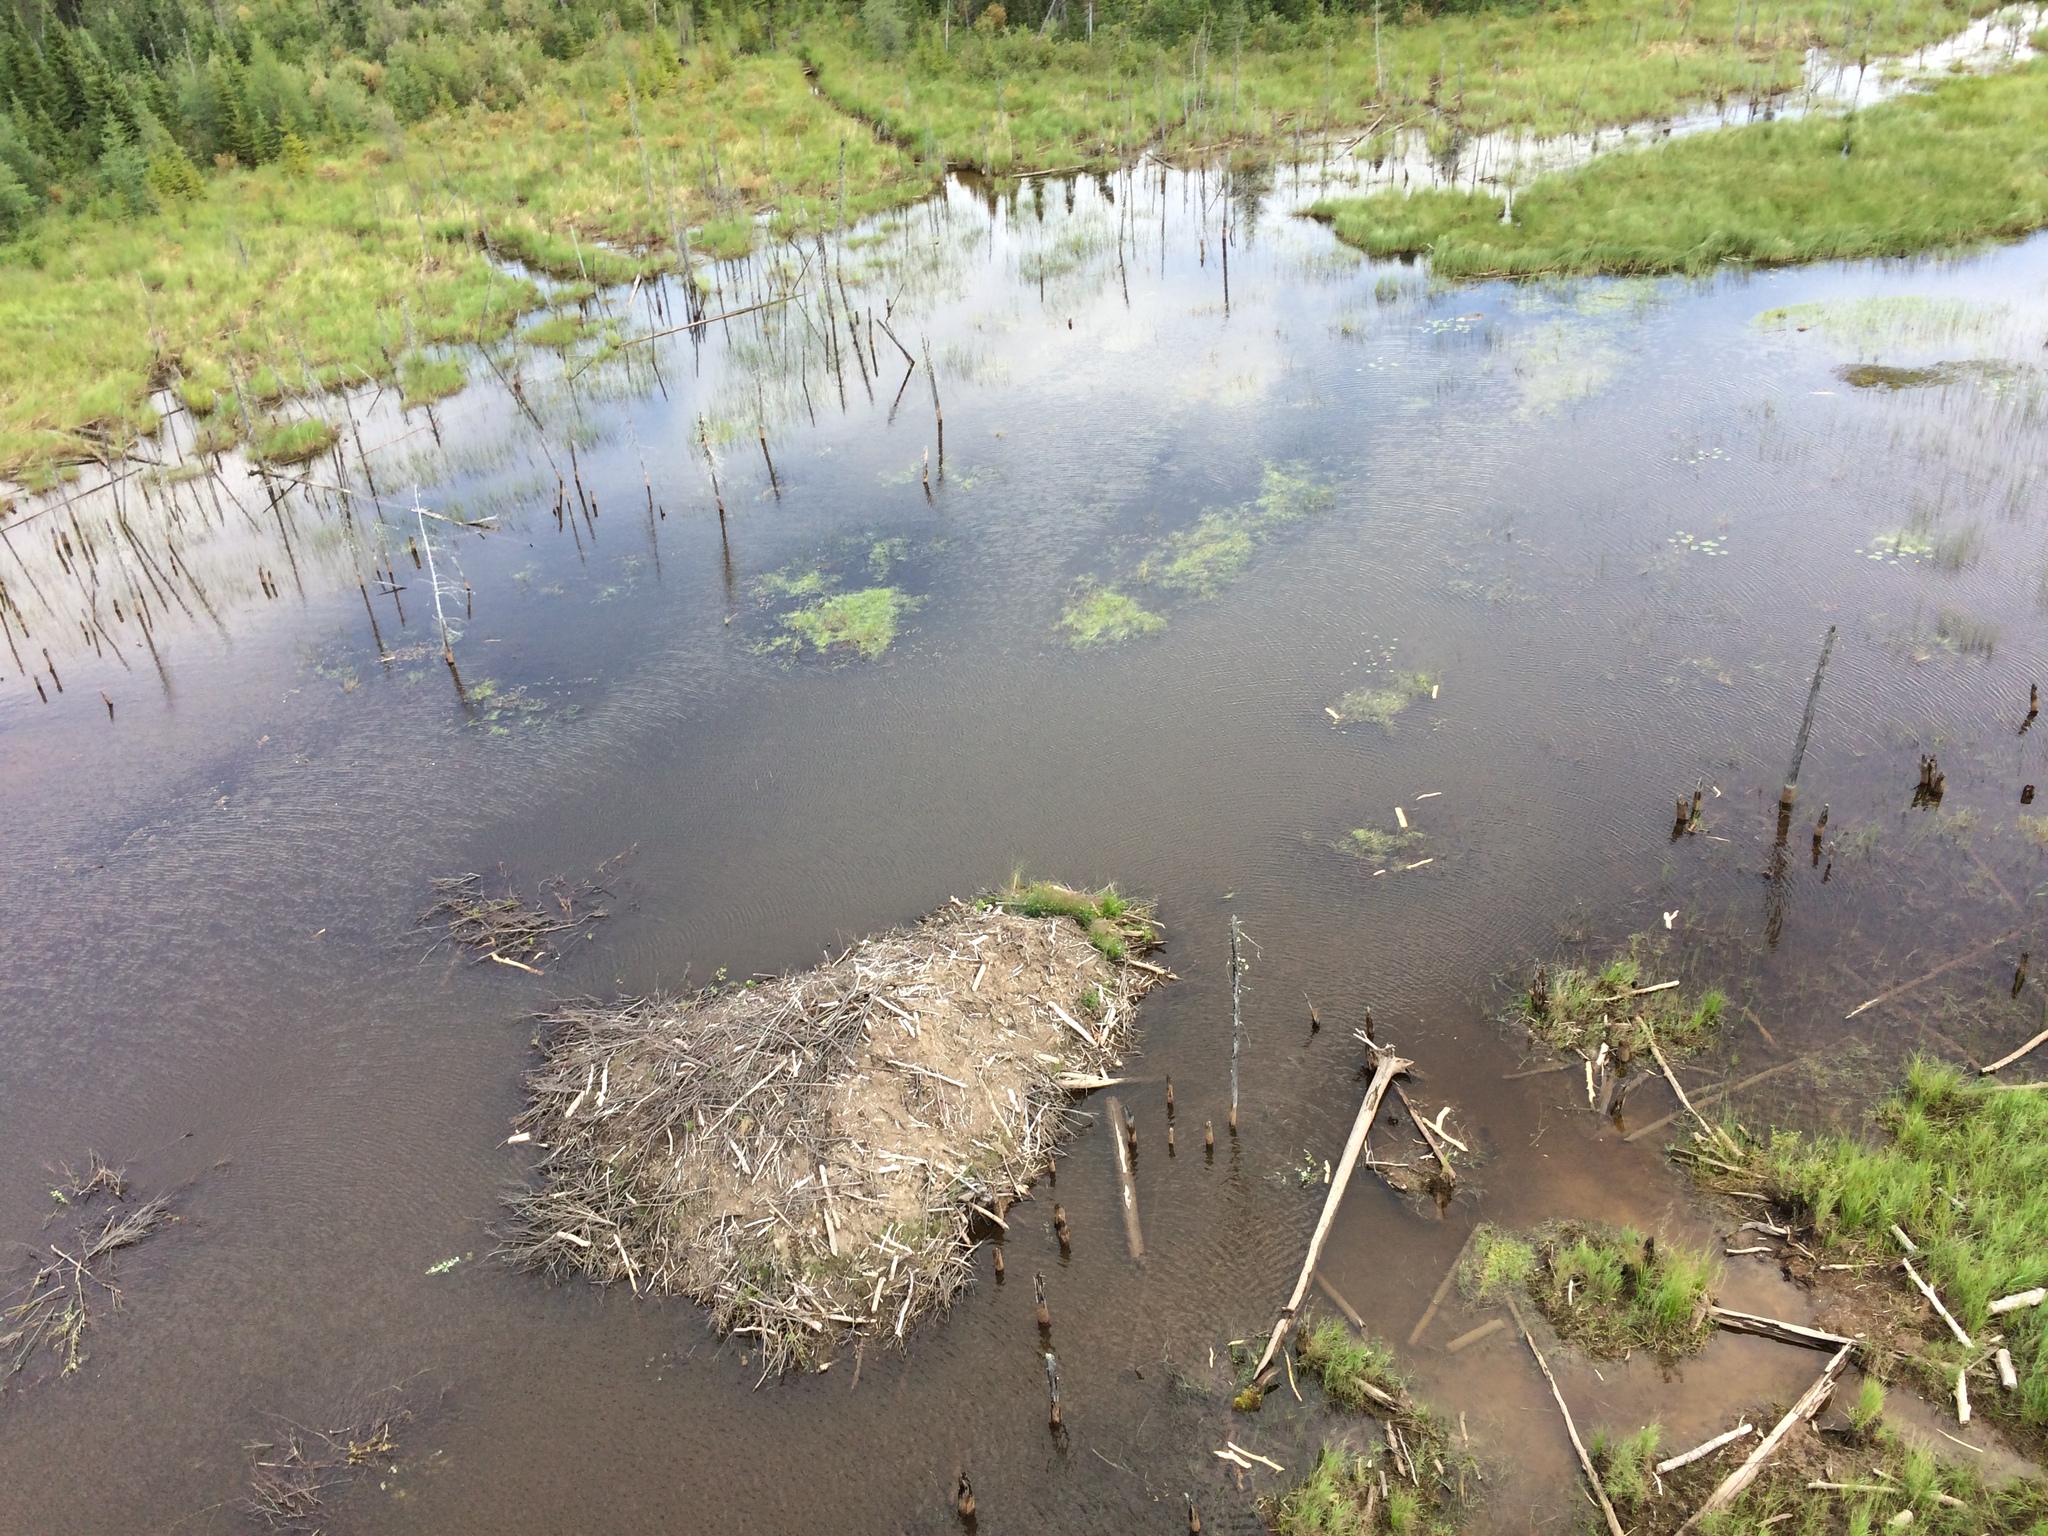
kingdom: Animalia
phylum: Chordata
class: Mammalia
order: Rodentia
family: Castoridae
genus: Castor
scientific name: Castor canadensis
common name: American beaver
